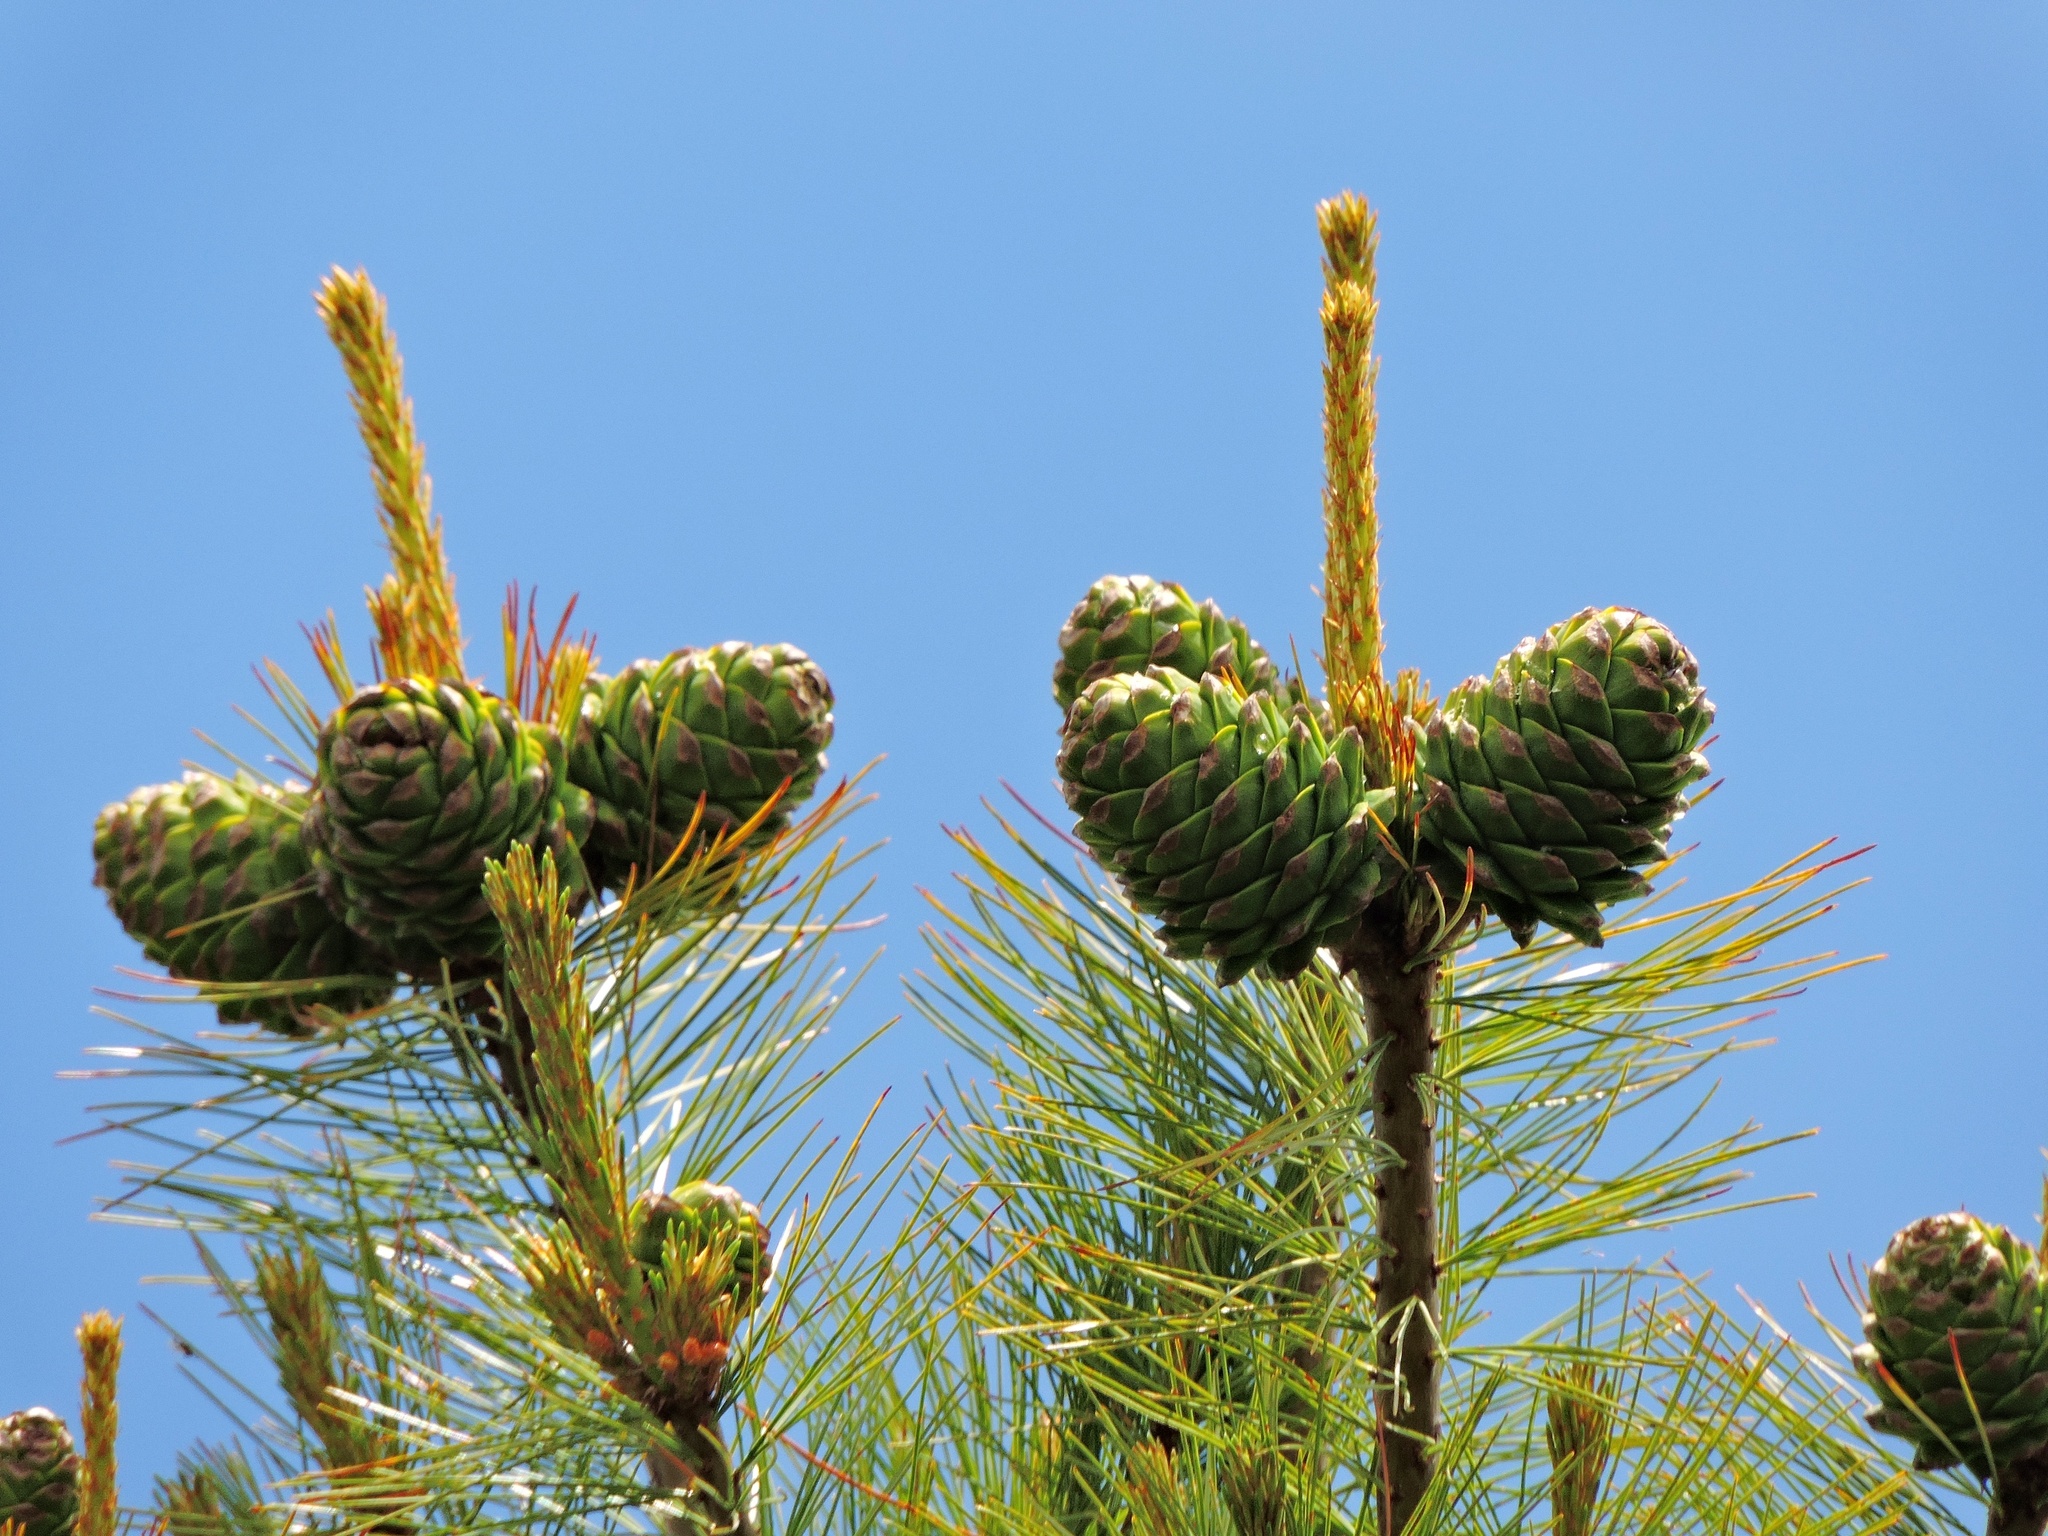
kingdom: Plantae
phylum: Tracheophyta
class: Pinopsida
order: Pinales
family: Pinaceae
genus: Pinus
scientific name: Pinus armandii
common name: Armand's pine
